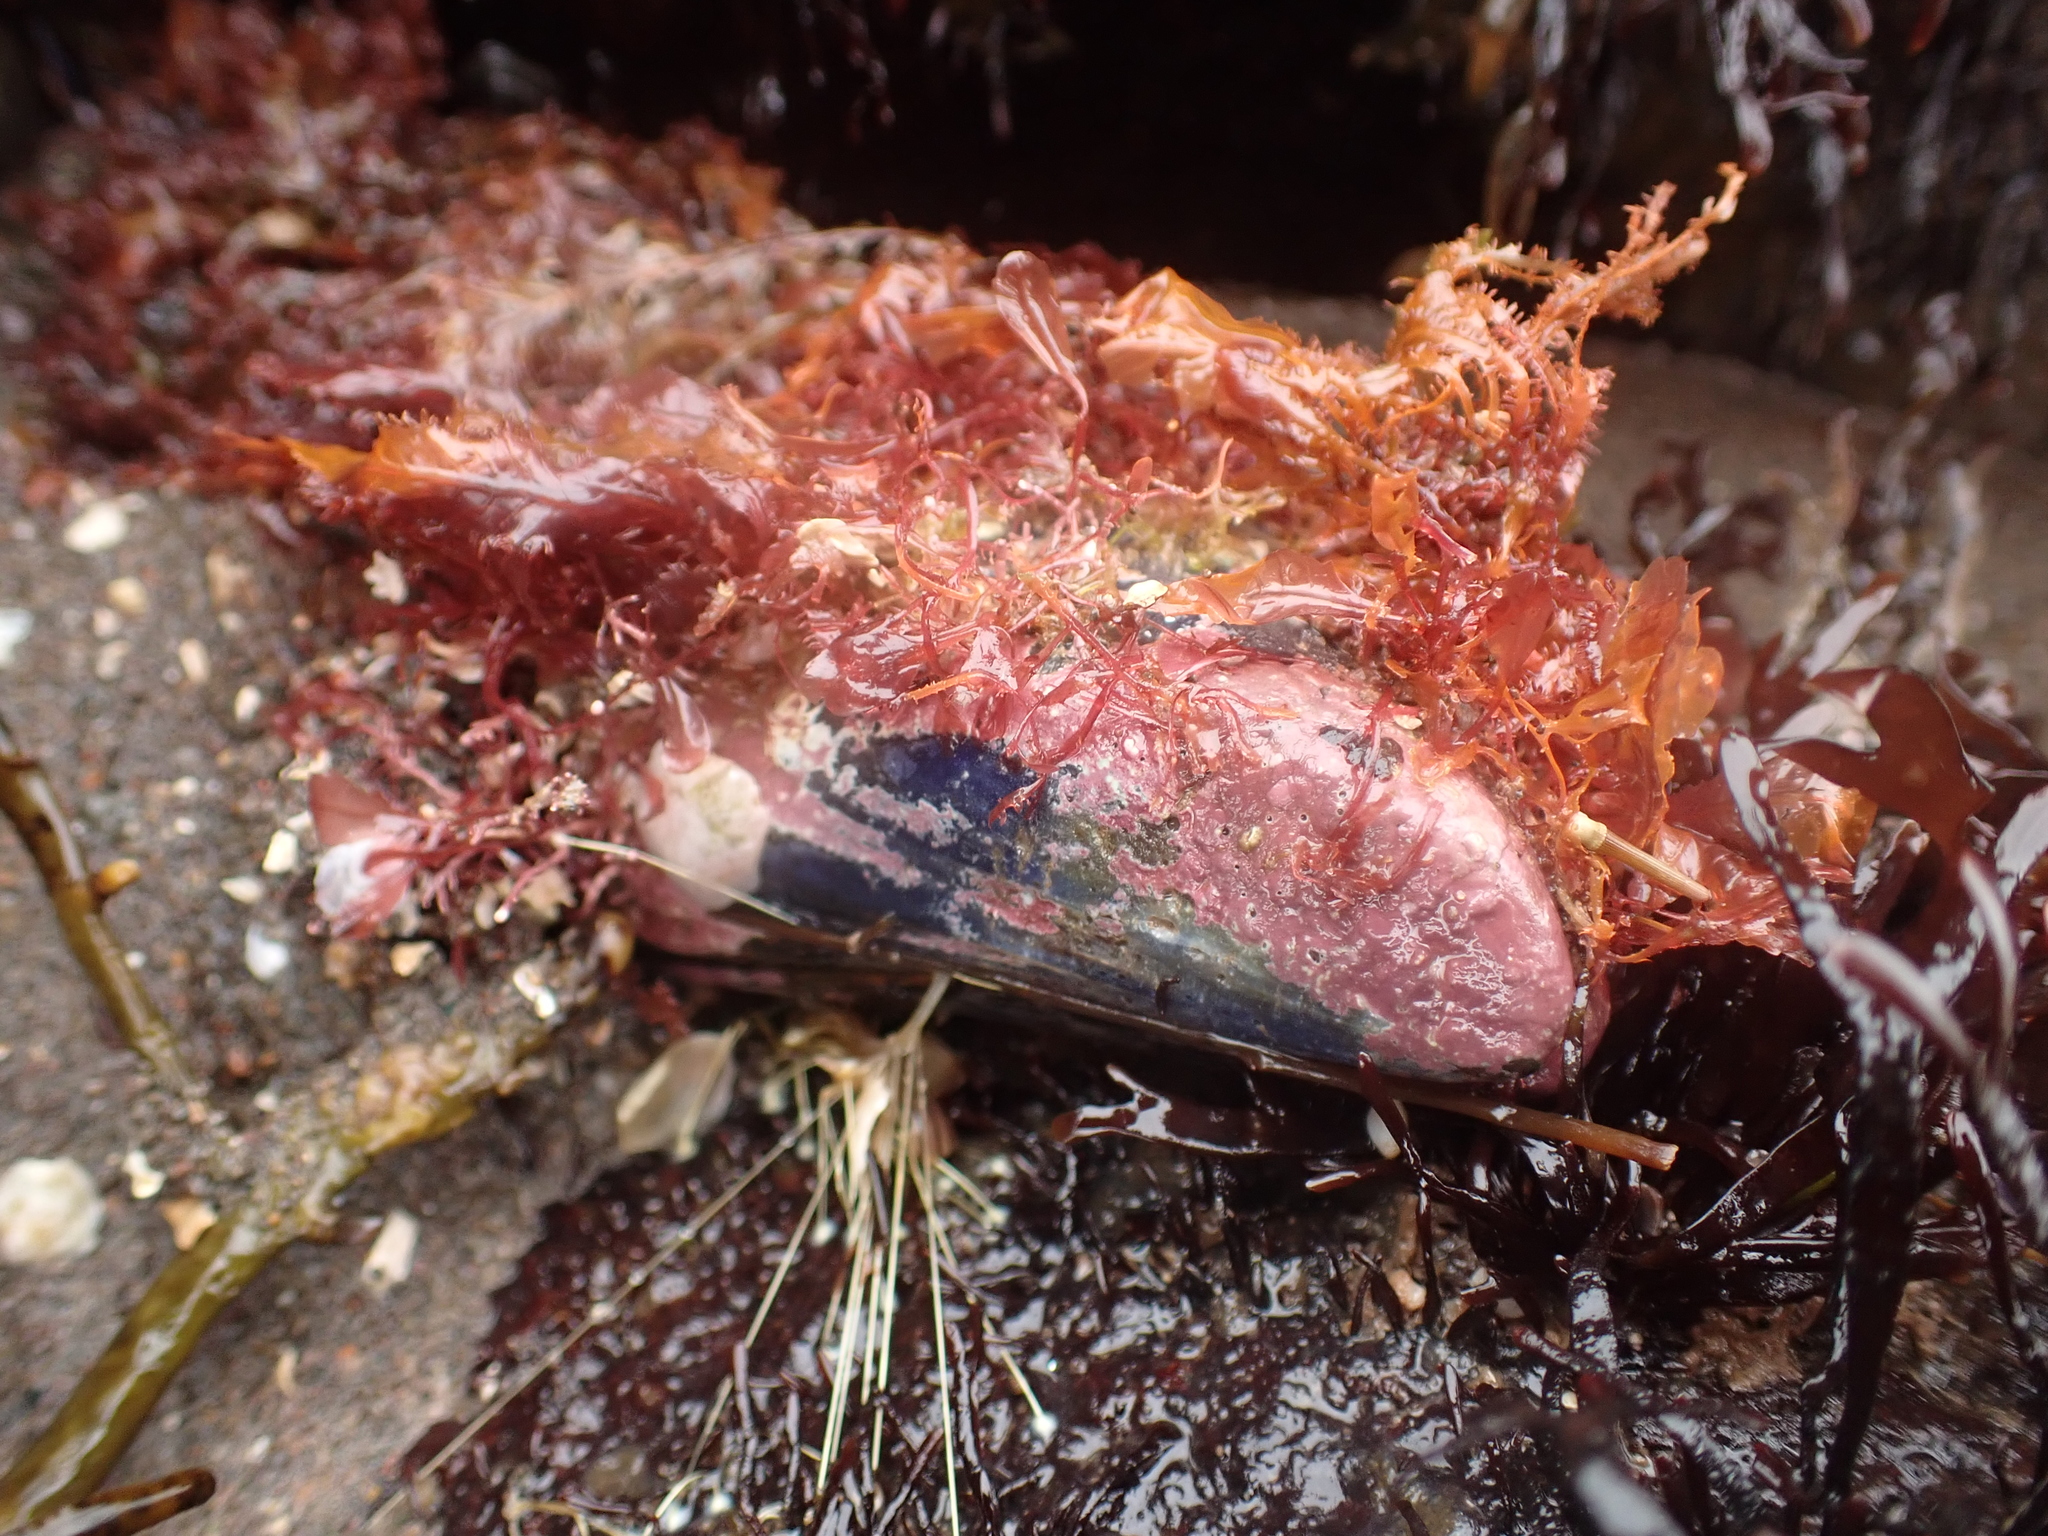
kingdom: Animalia
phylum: Mollusca
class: Bivalvia
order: Mytilida
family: Mytilidae
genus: Mytilus
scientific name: Mytilus edulis
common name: Blue mussel
